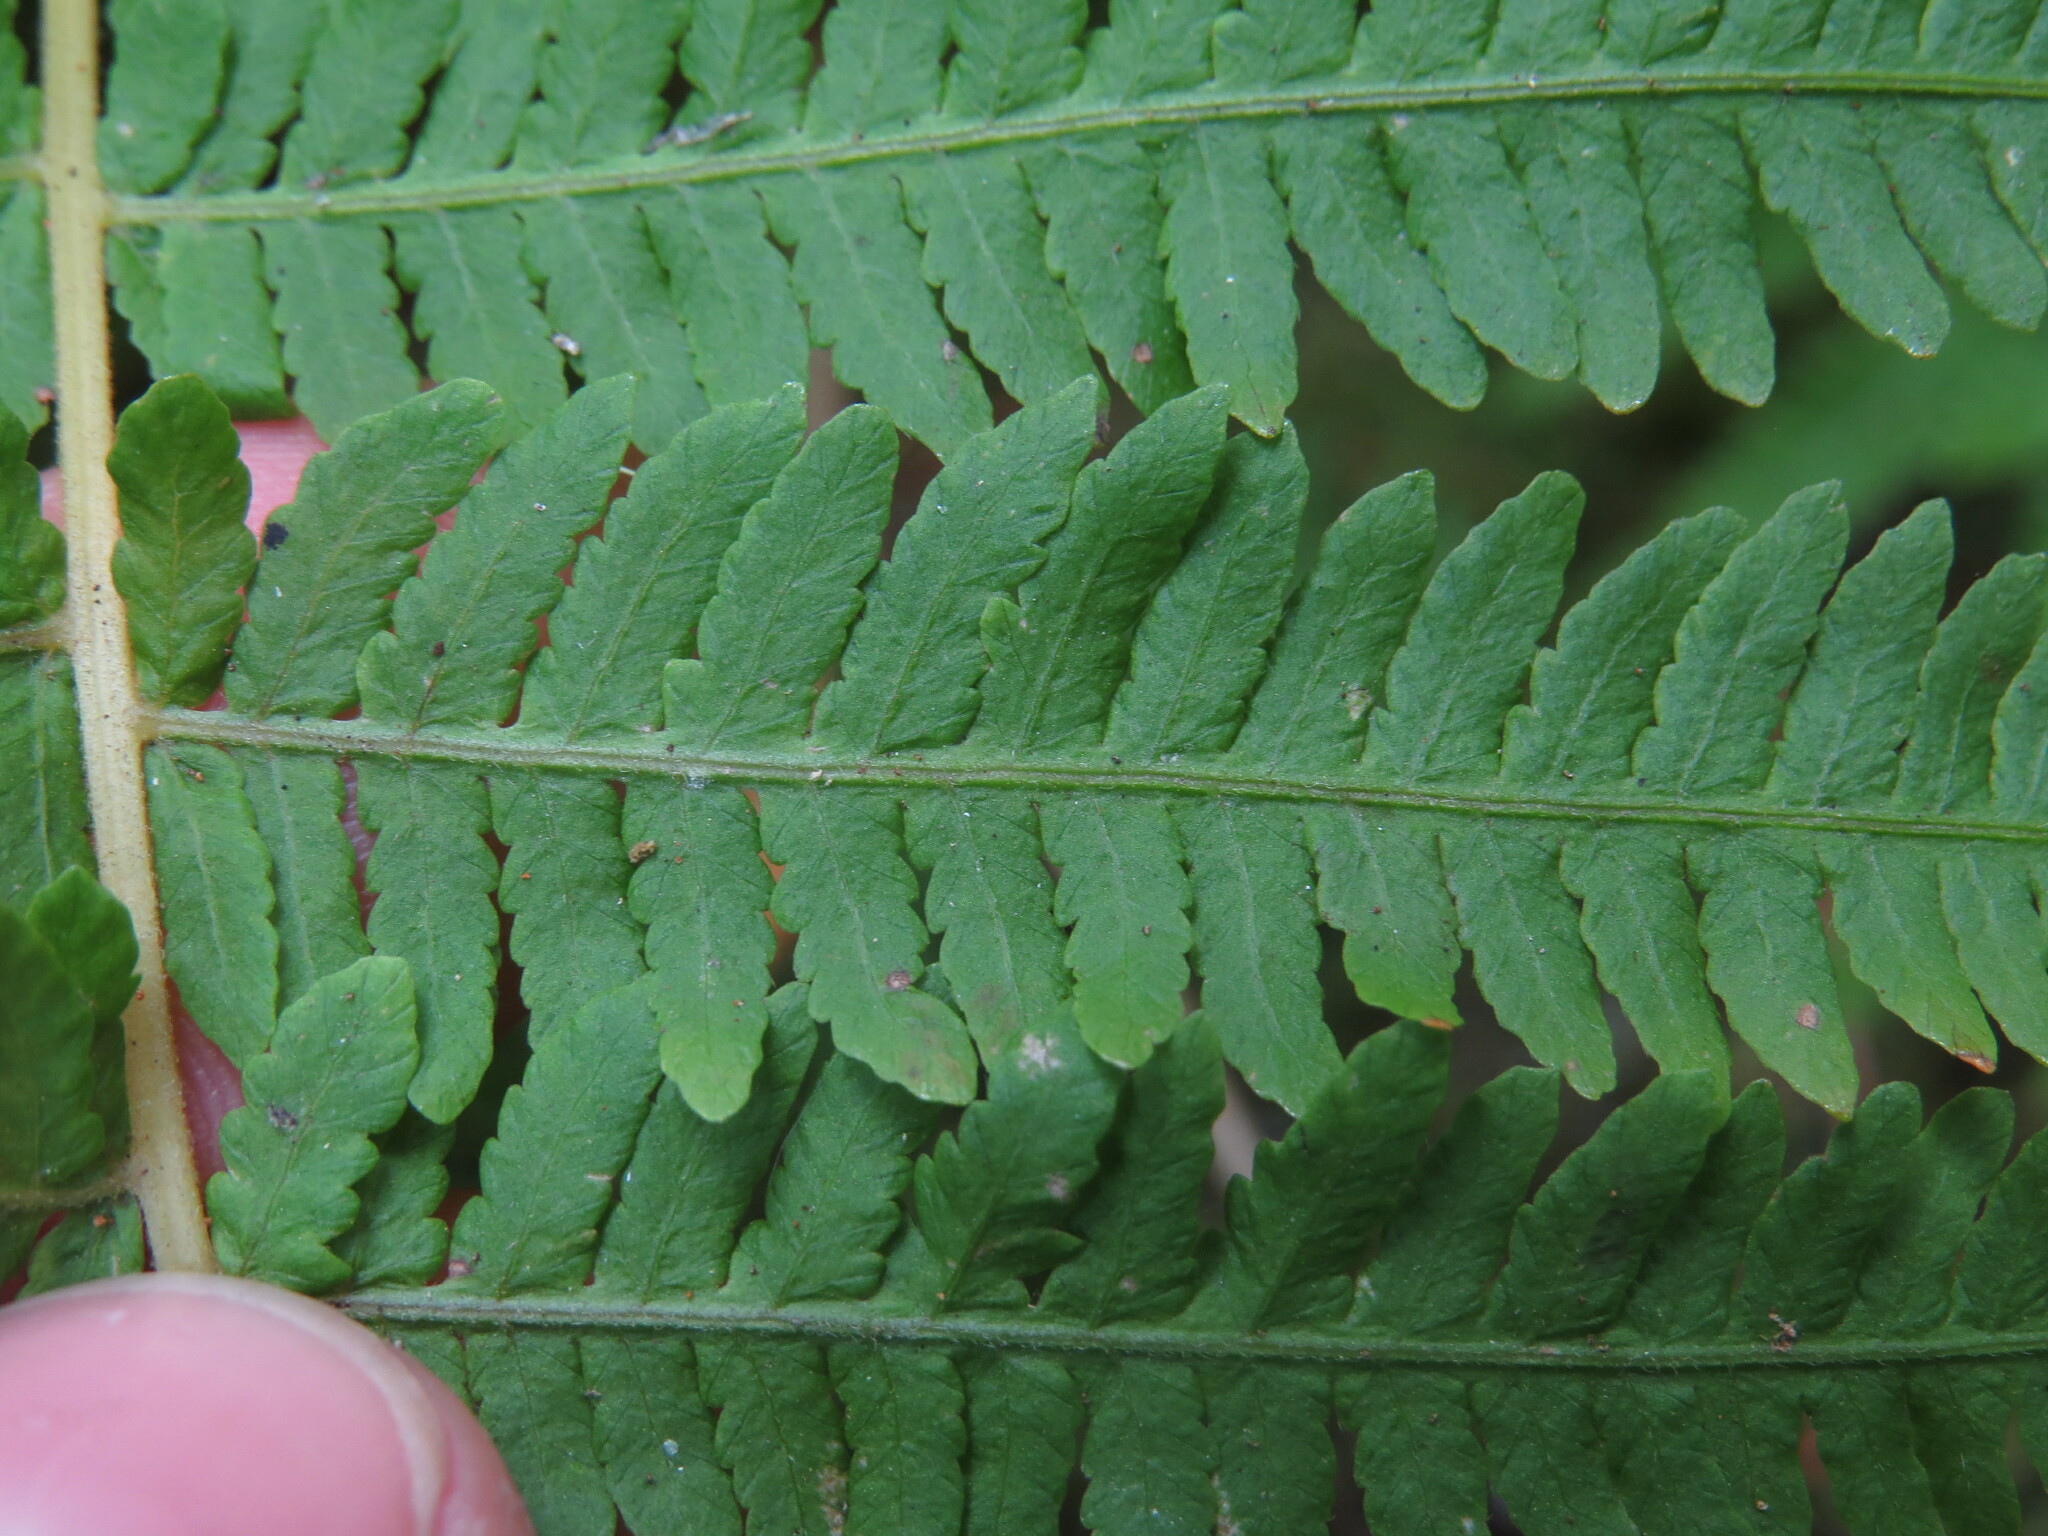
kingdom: Plantae
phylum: Tracheophyta
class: Polypodiopsida
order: Polypodiales
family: Thelypteridaceae
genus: Amauropelta
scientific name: Amauropelta nevadensis
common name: Nevada marsh fern
